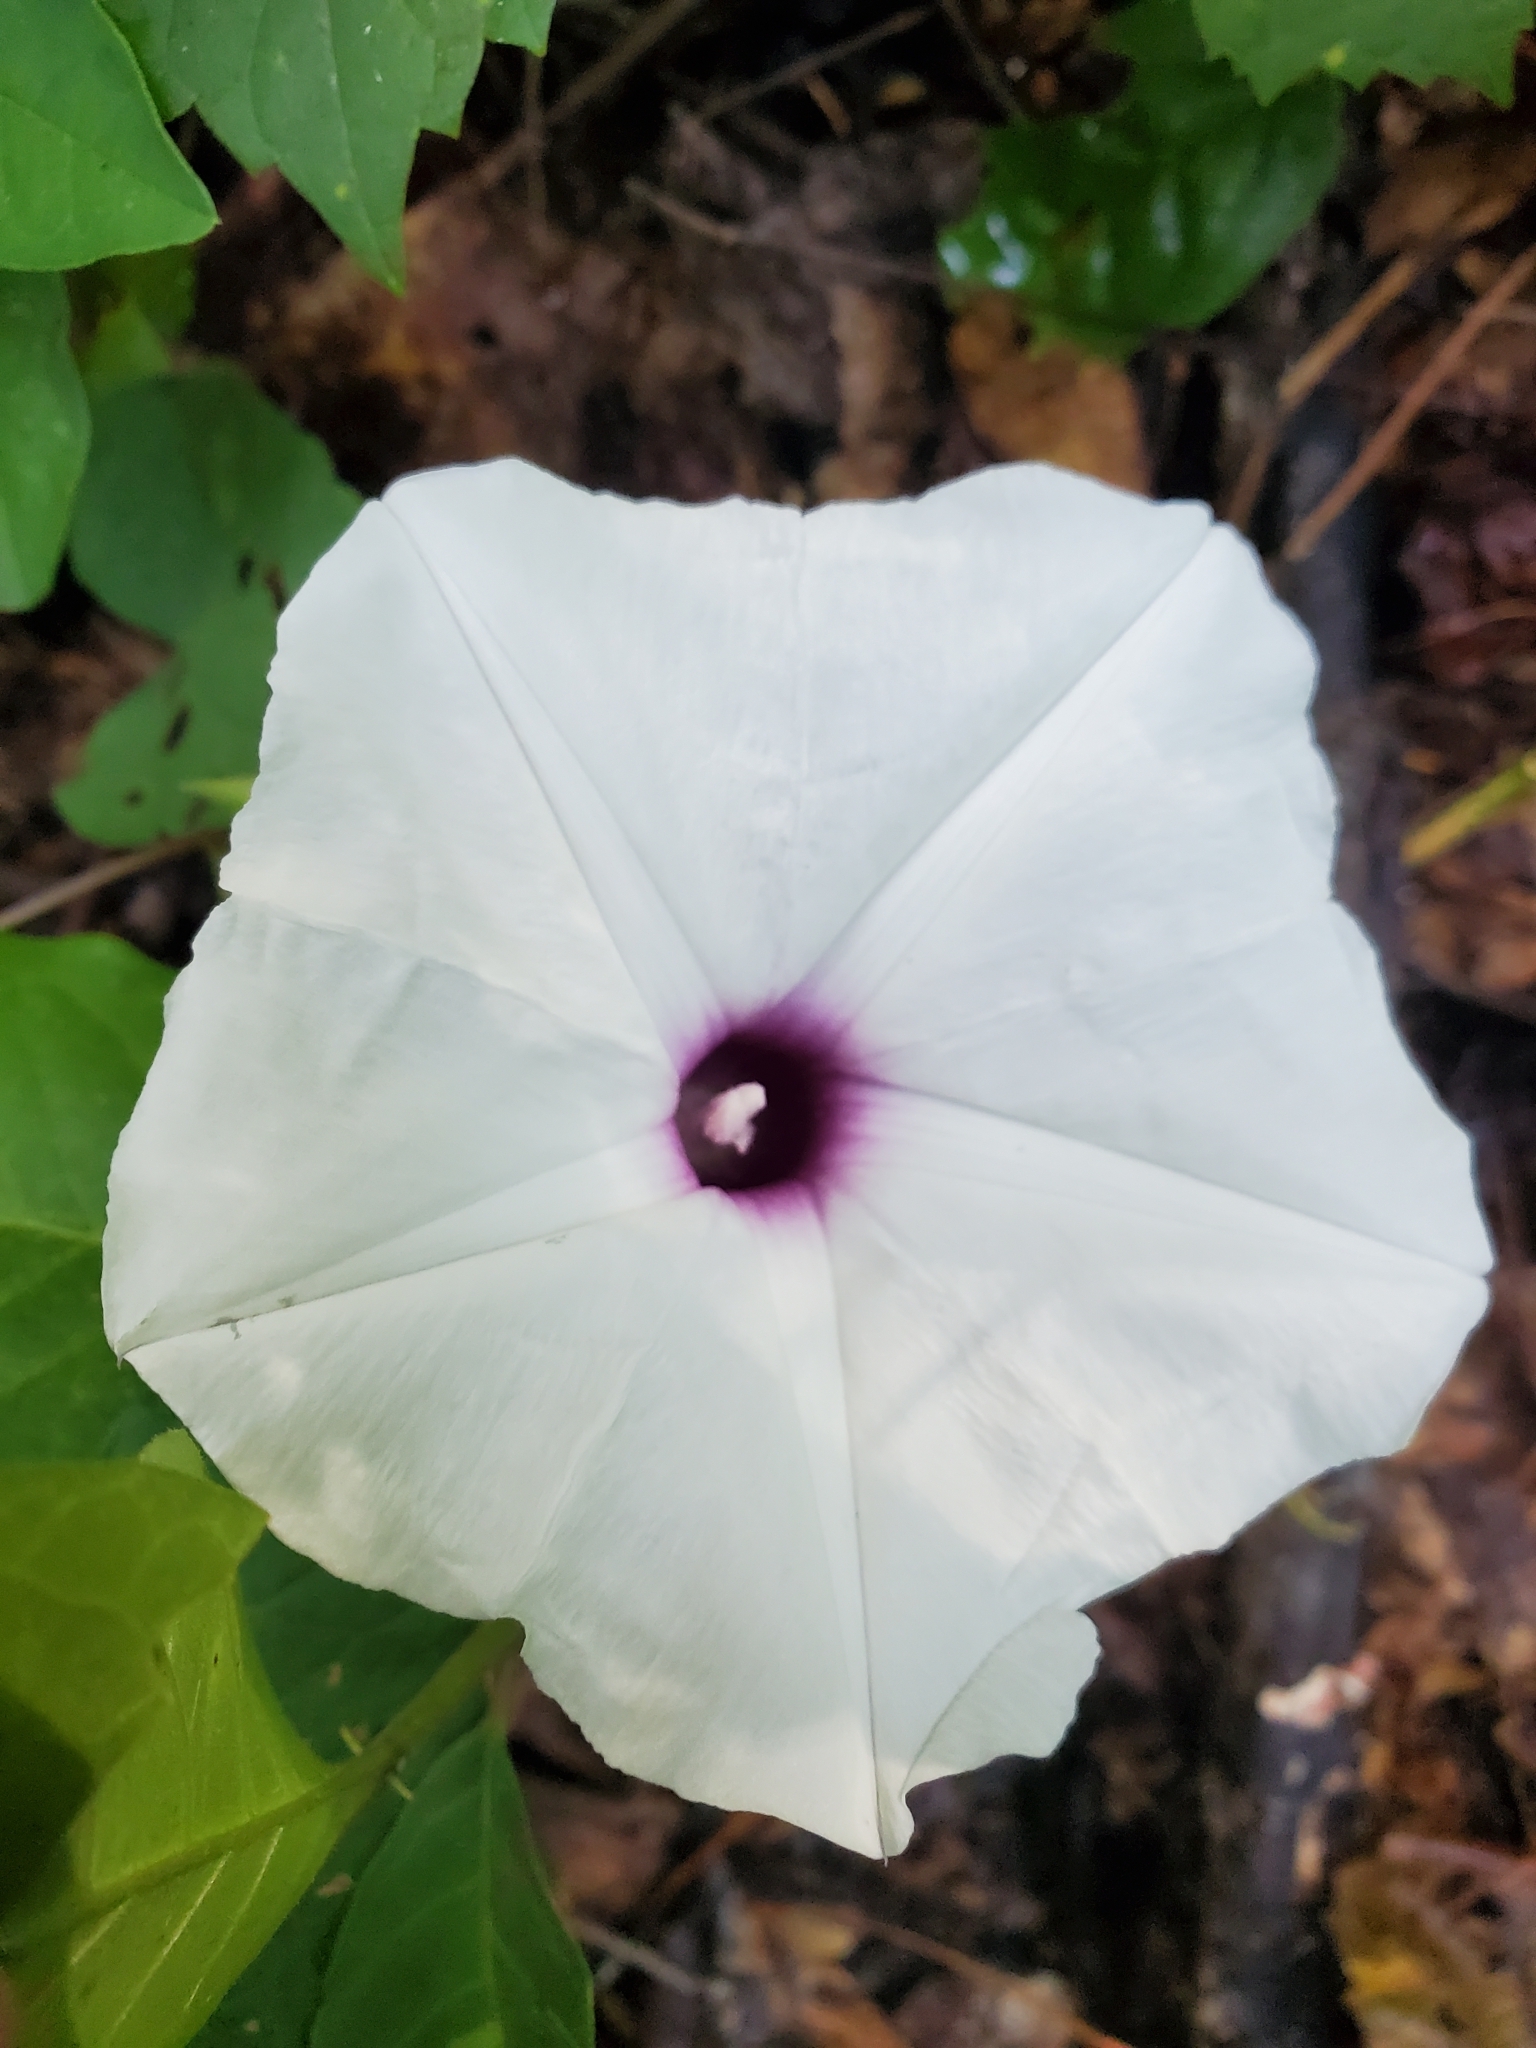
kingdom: Plantae
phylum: Tracheophyta
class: Magnoliopsida
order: Solanales
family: Convolvulaceae
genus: Ipomoea
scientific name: Ipomoea pandurata
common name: Man-of-the-earth
